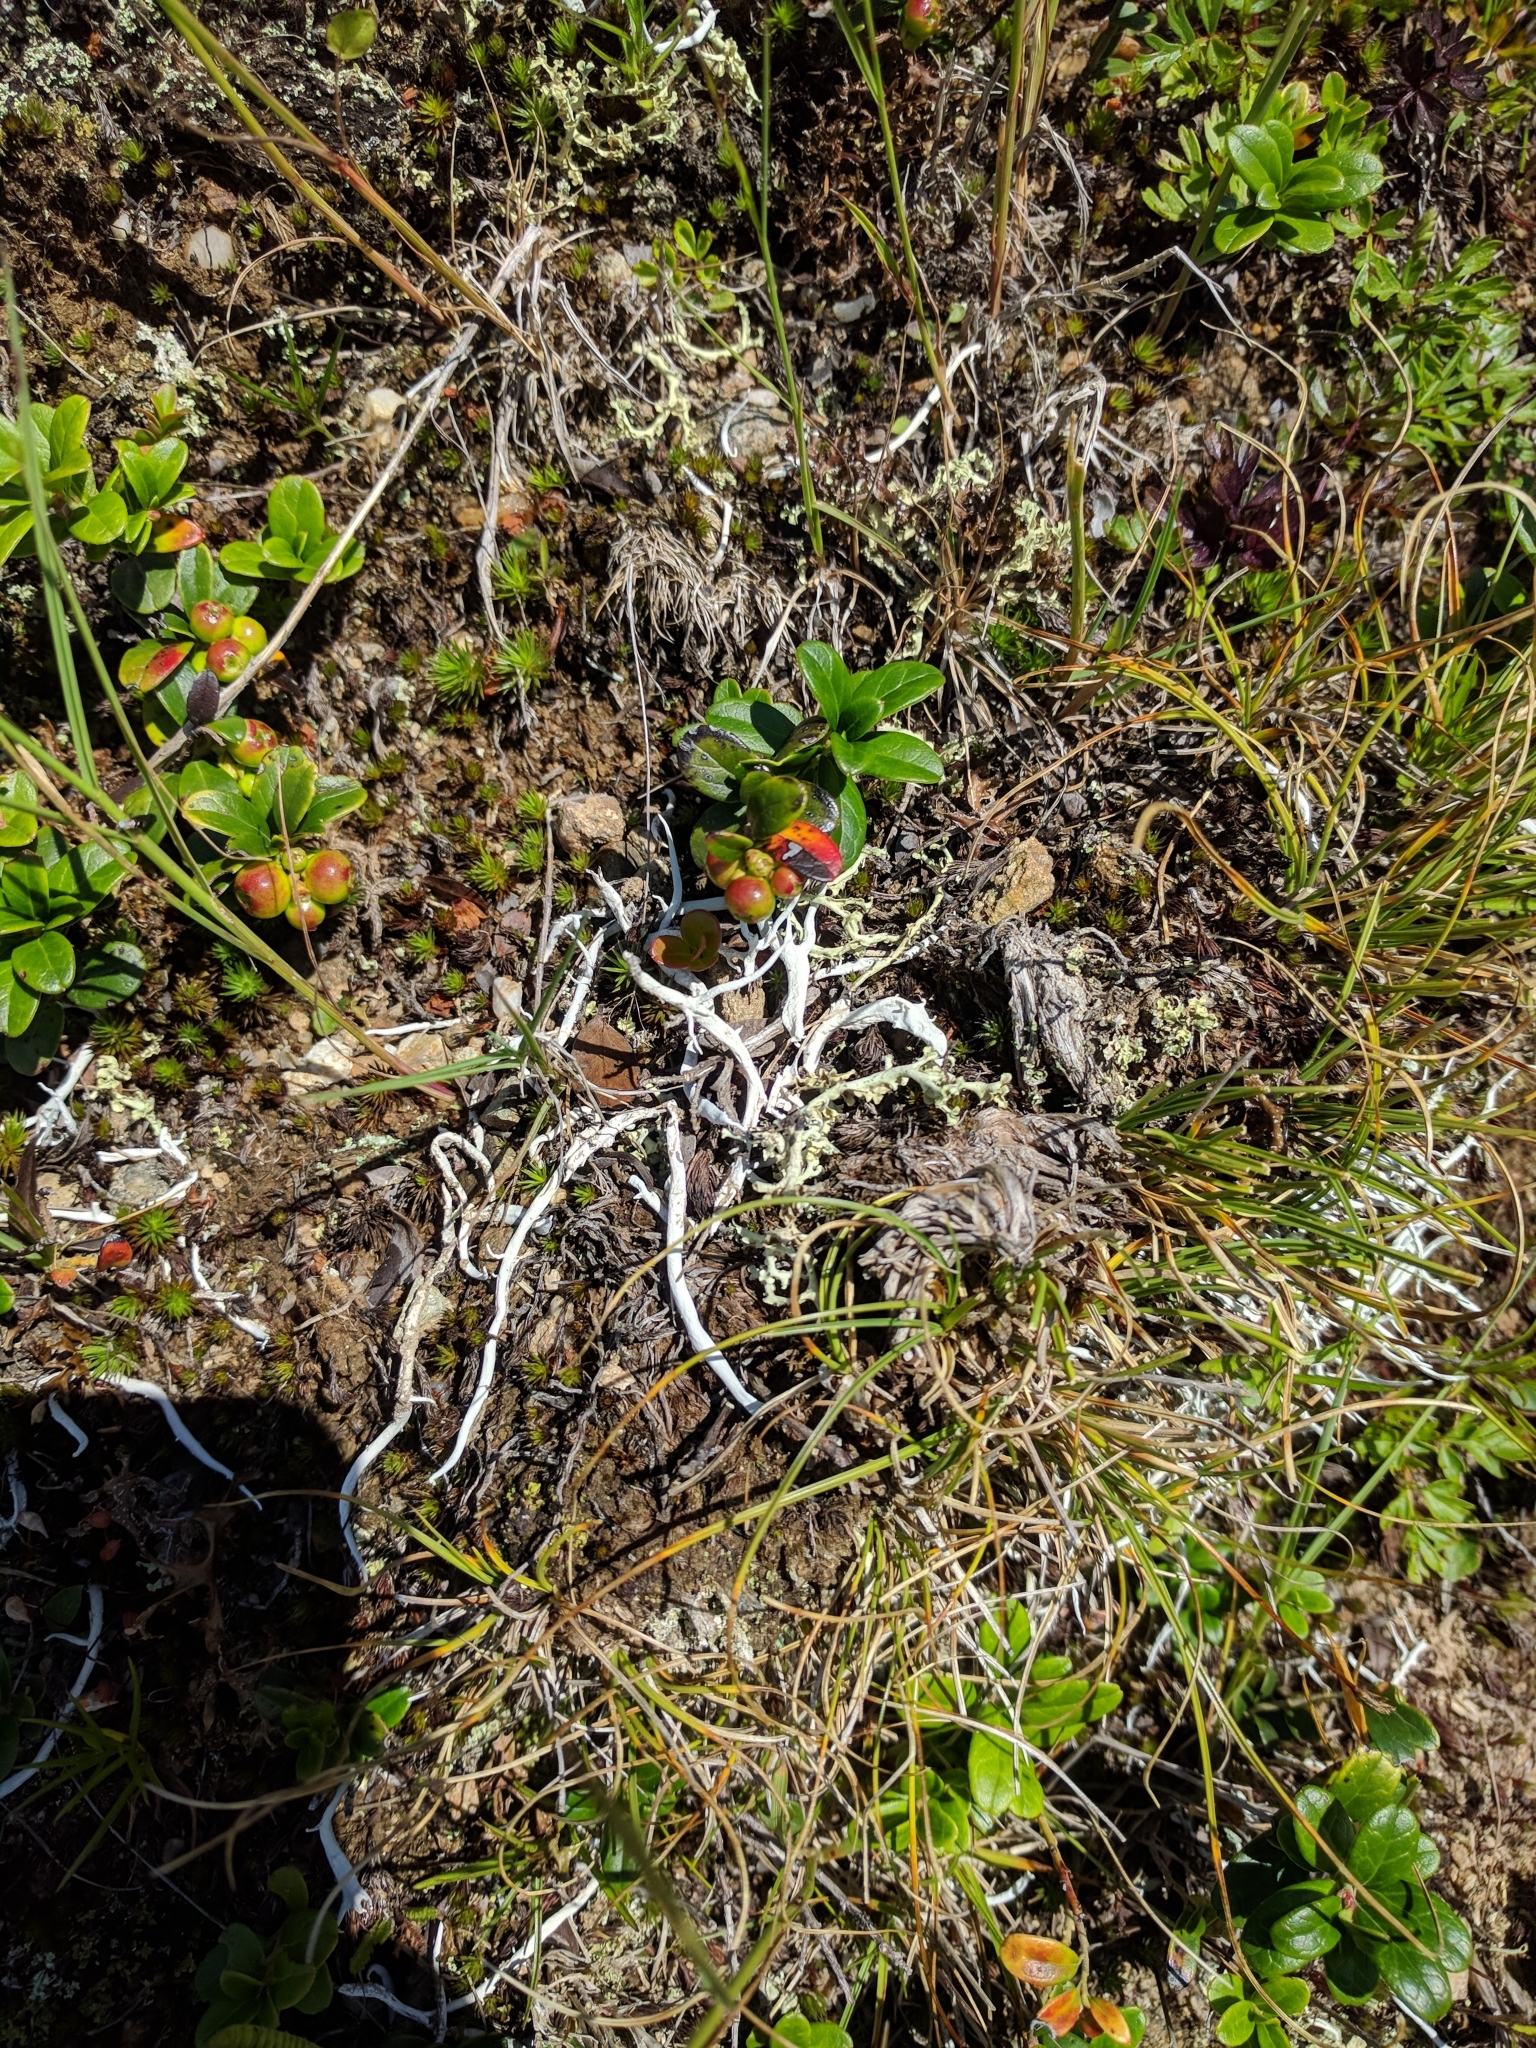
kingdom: Fungi
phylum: Ascomycota
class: Lecanoromycetes
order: Pertusariales
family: Icmadophilaceae
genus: Thamnolia
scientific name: Thamnolia vermicularis
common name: Whiteworm lichen
